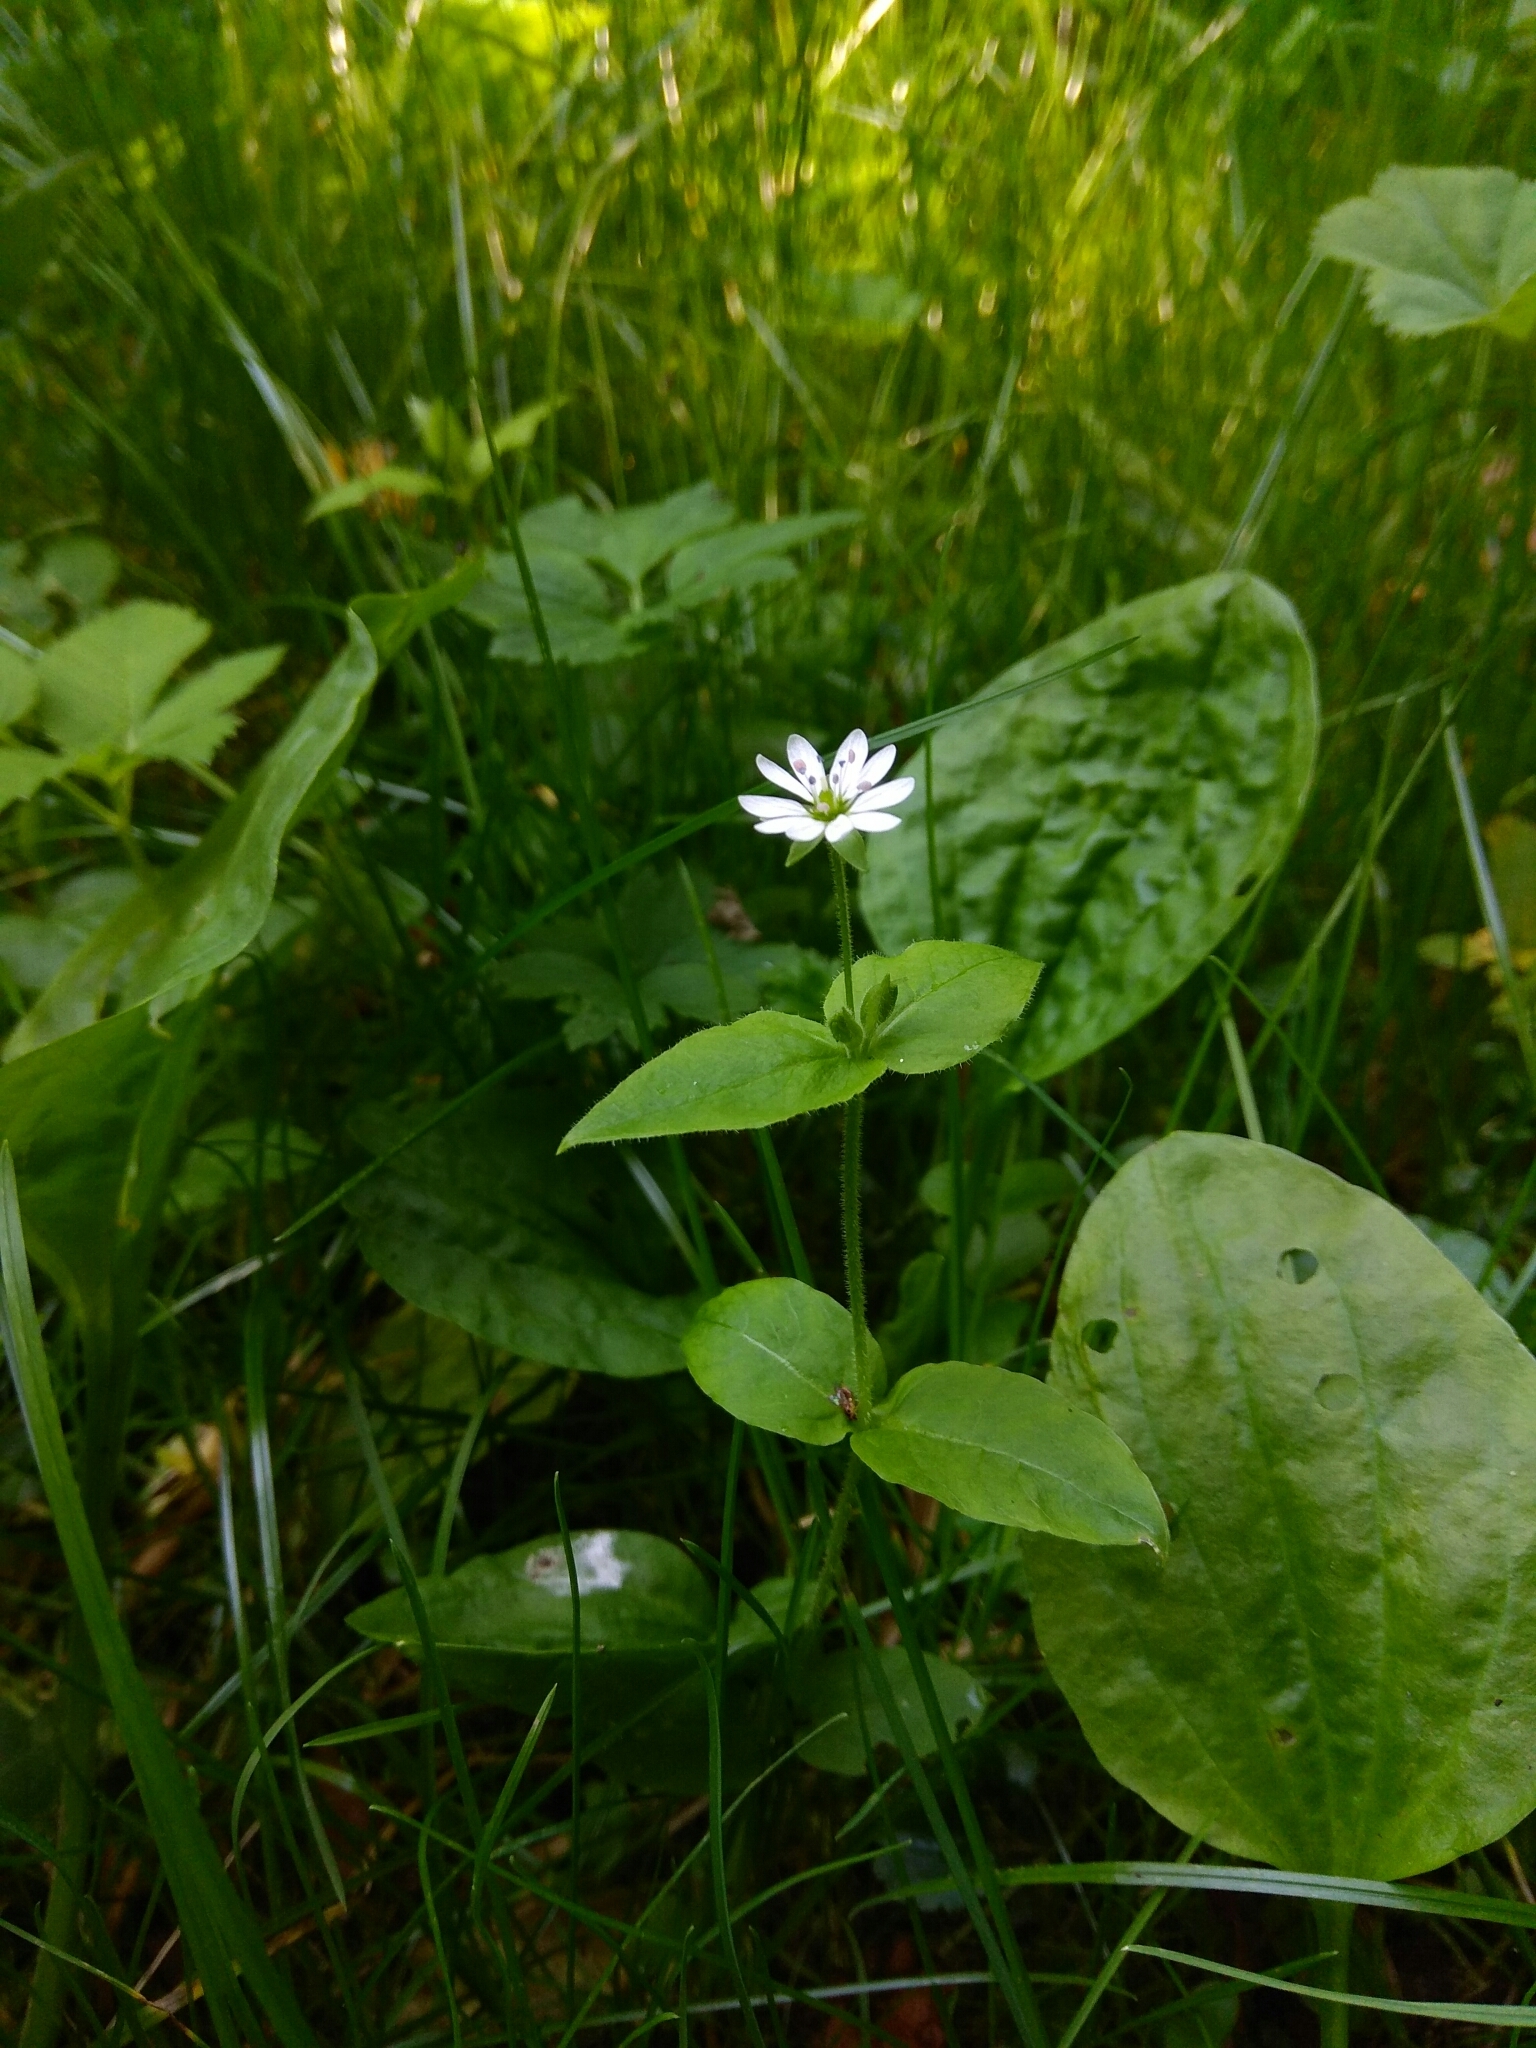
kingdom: Plantae
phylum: Tracheophyta
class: Magnoliopsida
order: Caryophyllales
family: Caryophyllaceae
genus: Stellaria
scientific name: Stellaria aquatica
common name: Water chickweed
